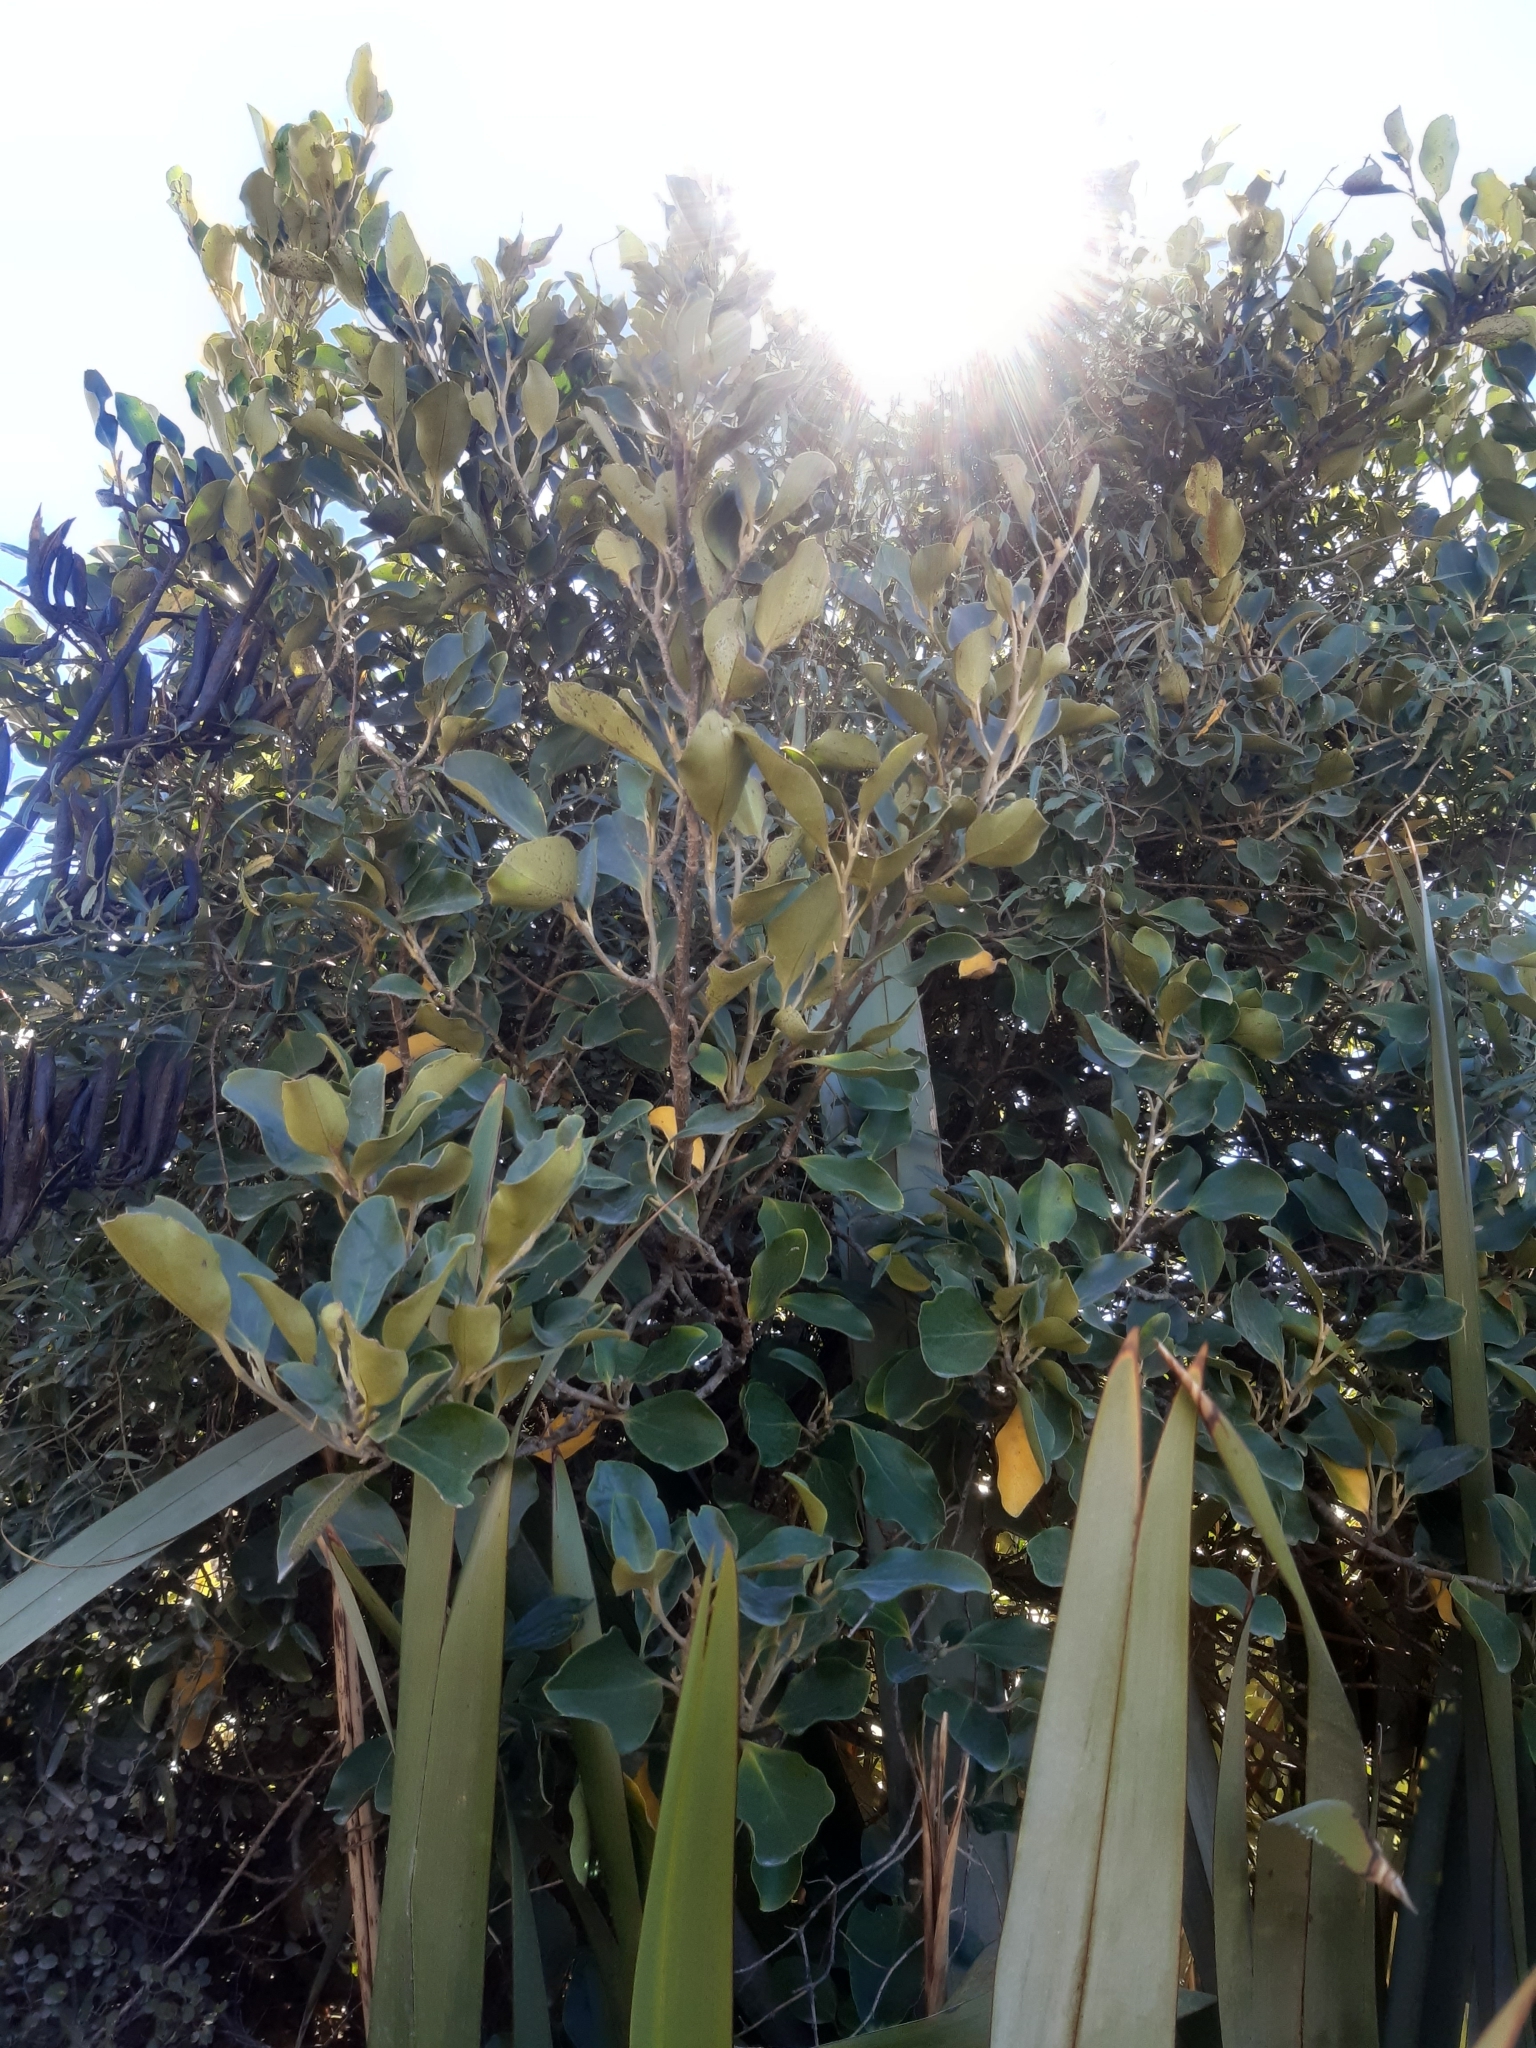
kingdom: Plantae
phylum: Tracheophyta
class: Magnoliopsida
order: Apiales
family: Griseliniaceae
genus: Griselinia
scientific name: Griselinia littoralis
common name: New zealand broadleaf
